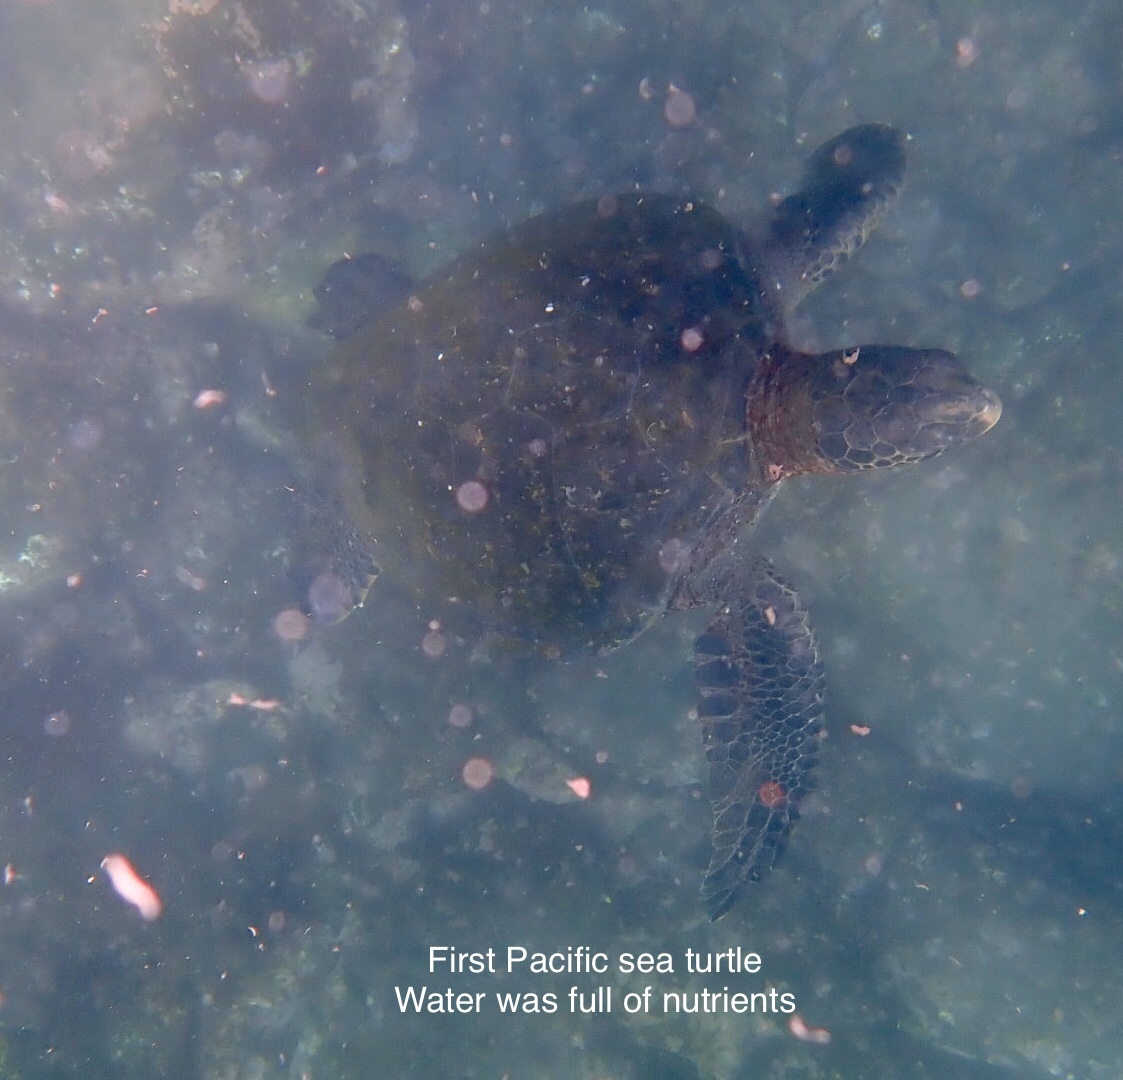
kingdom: Animalia
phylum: Chordata
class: Testudines
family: Cheloniidae
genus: Chelonia
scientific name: Chelonia mydas
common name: Green turtle
